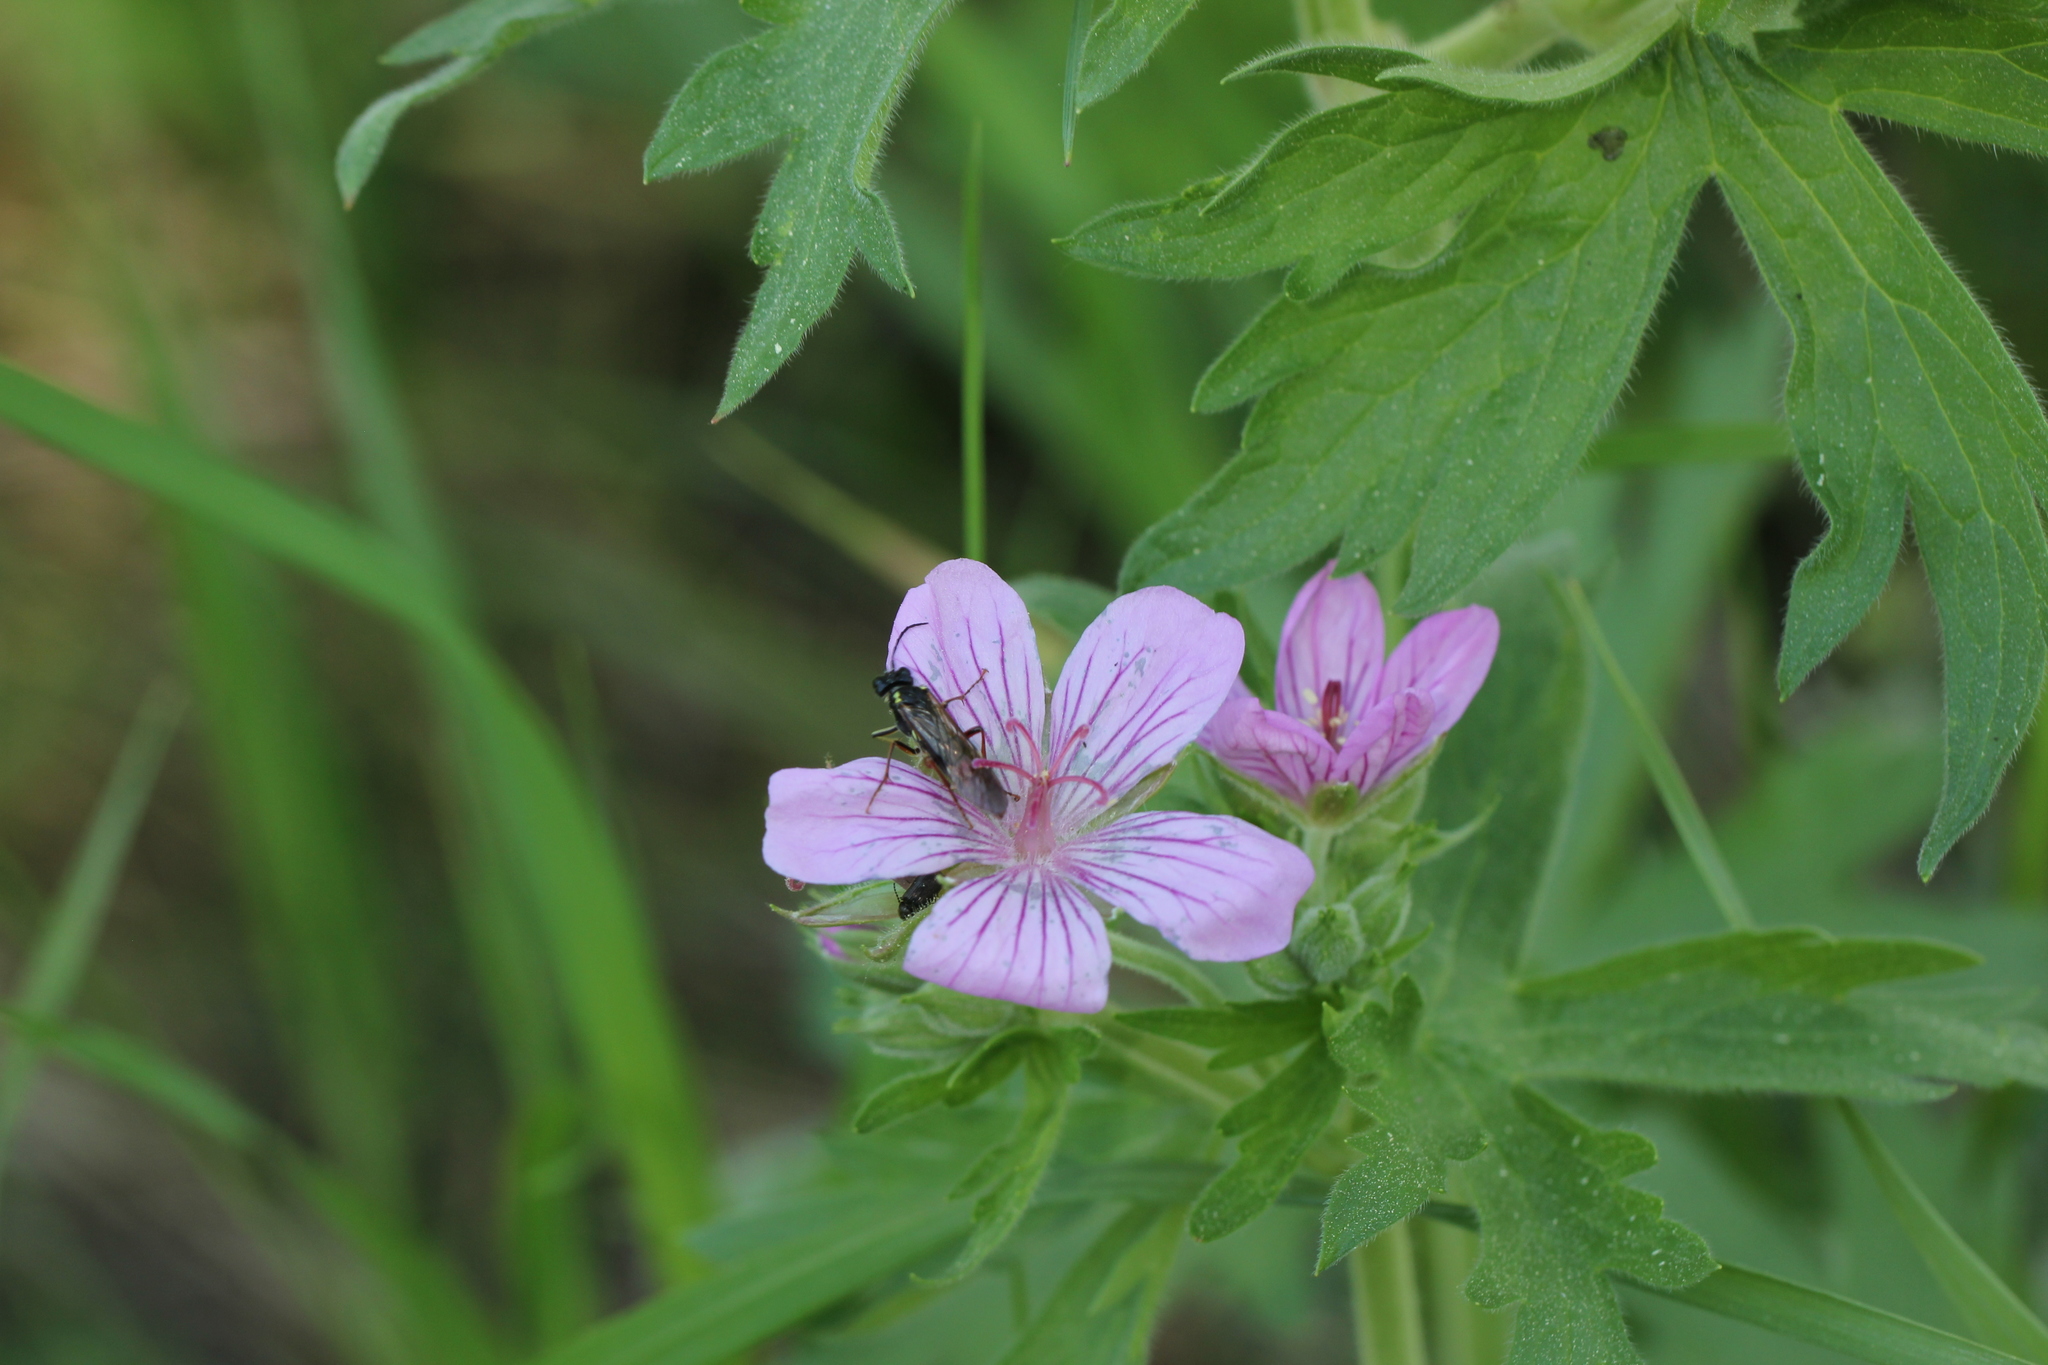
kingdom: Plantae
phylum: Tracheophyta
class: Magnoliopsida
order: Geraniales
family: Geraniaceae
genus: Geranium
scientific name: Geranium richardsonii
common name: Richardson's crane's-bill
